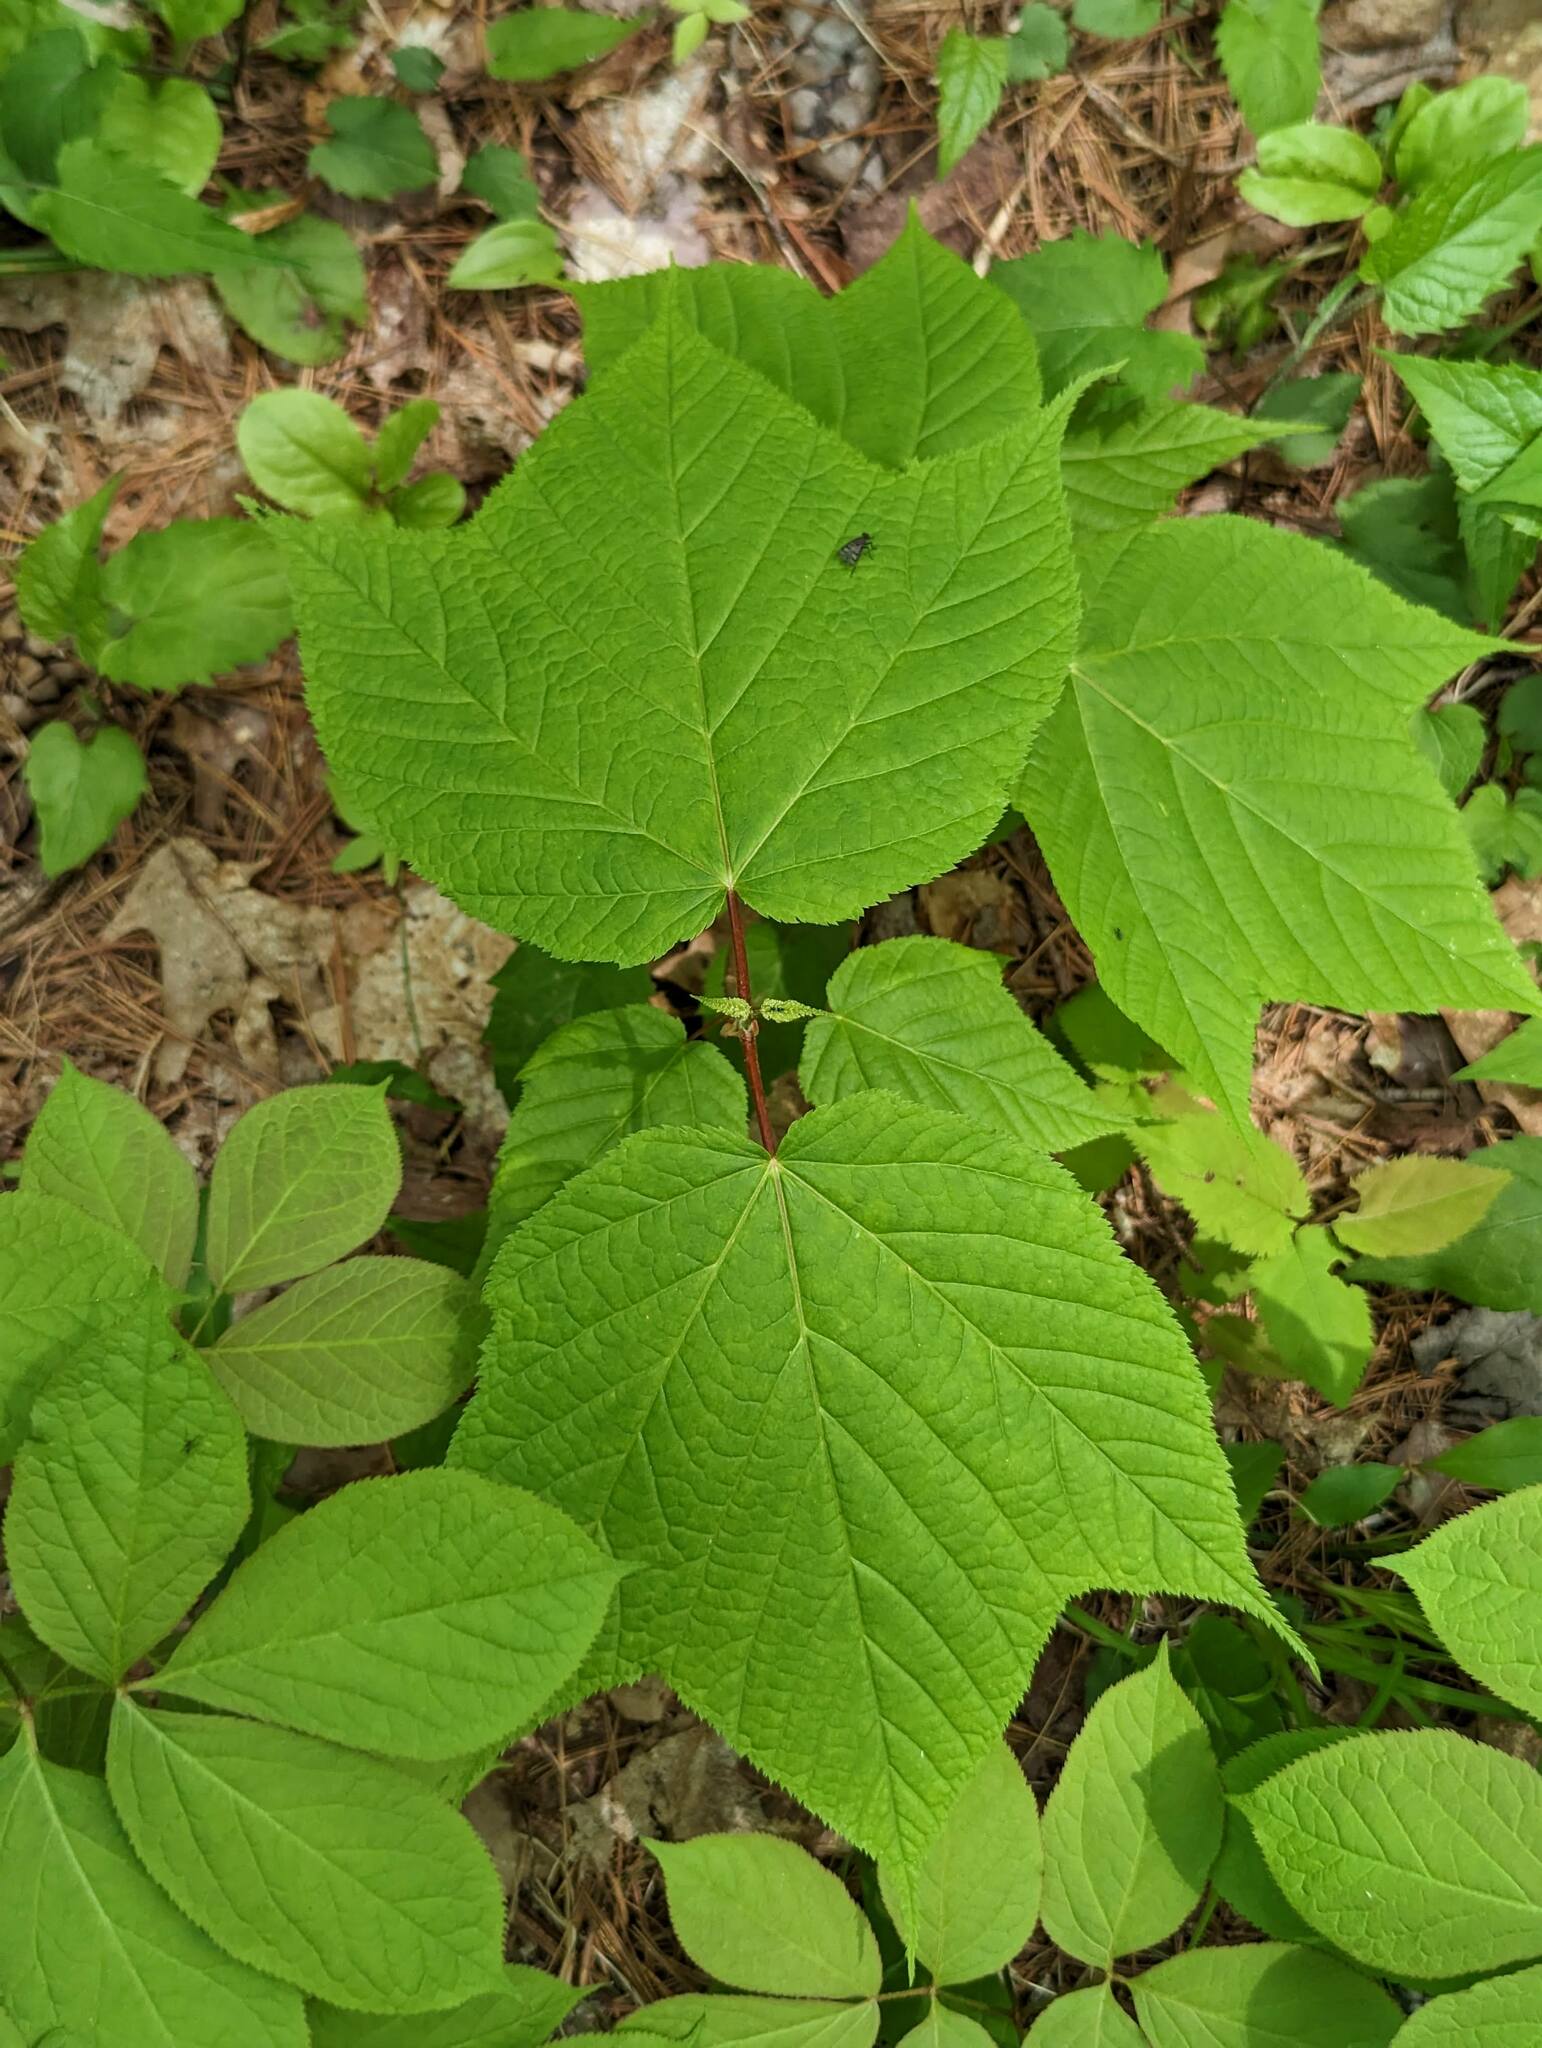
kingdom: Plantae
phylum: Tracheophyta
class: Magnoliopsida
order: Sapindales
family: Sapindaceae
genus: Acer
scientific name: Acer pensylvanicum
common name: Moosewood
